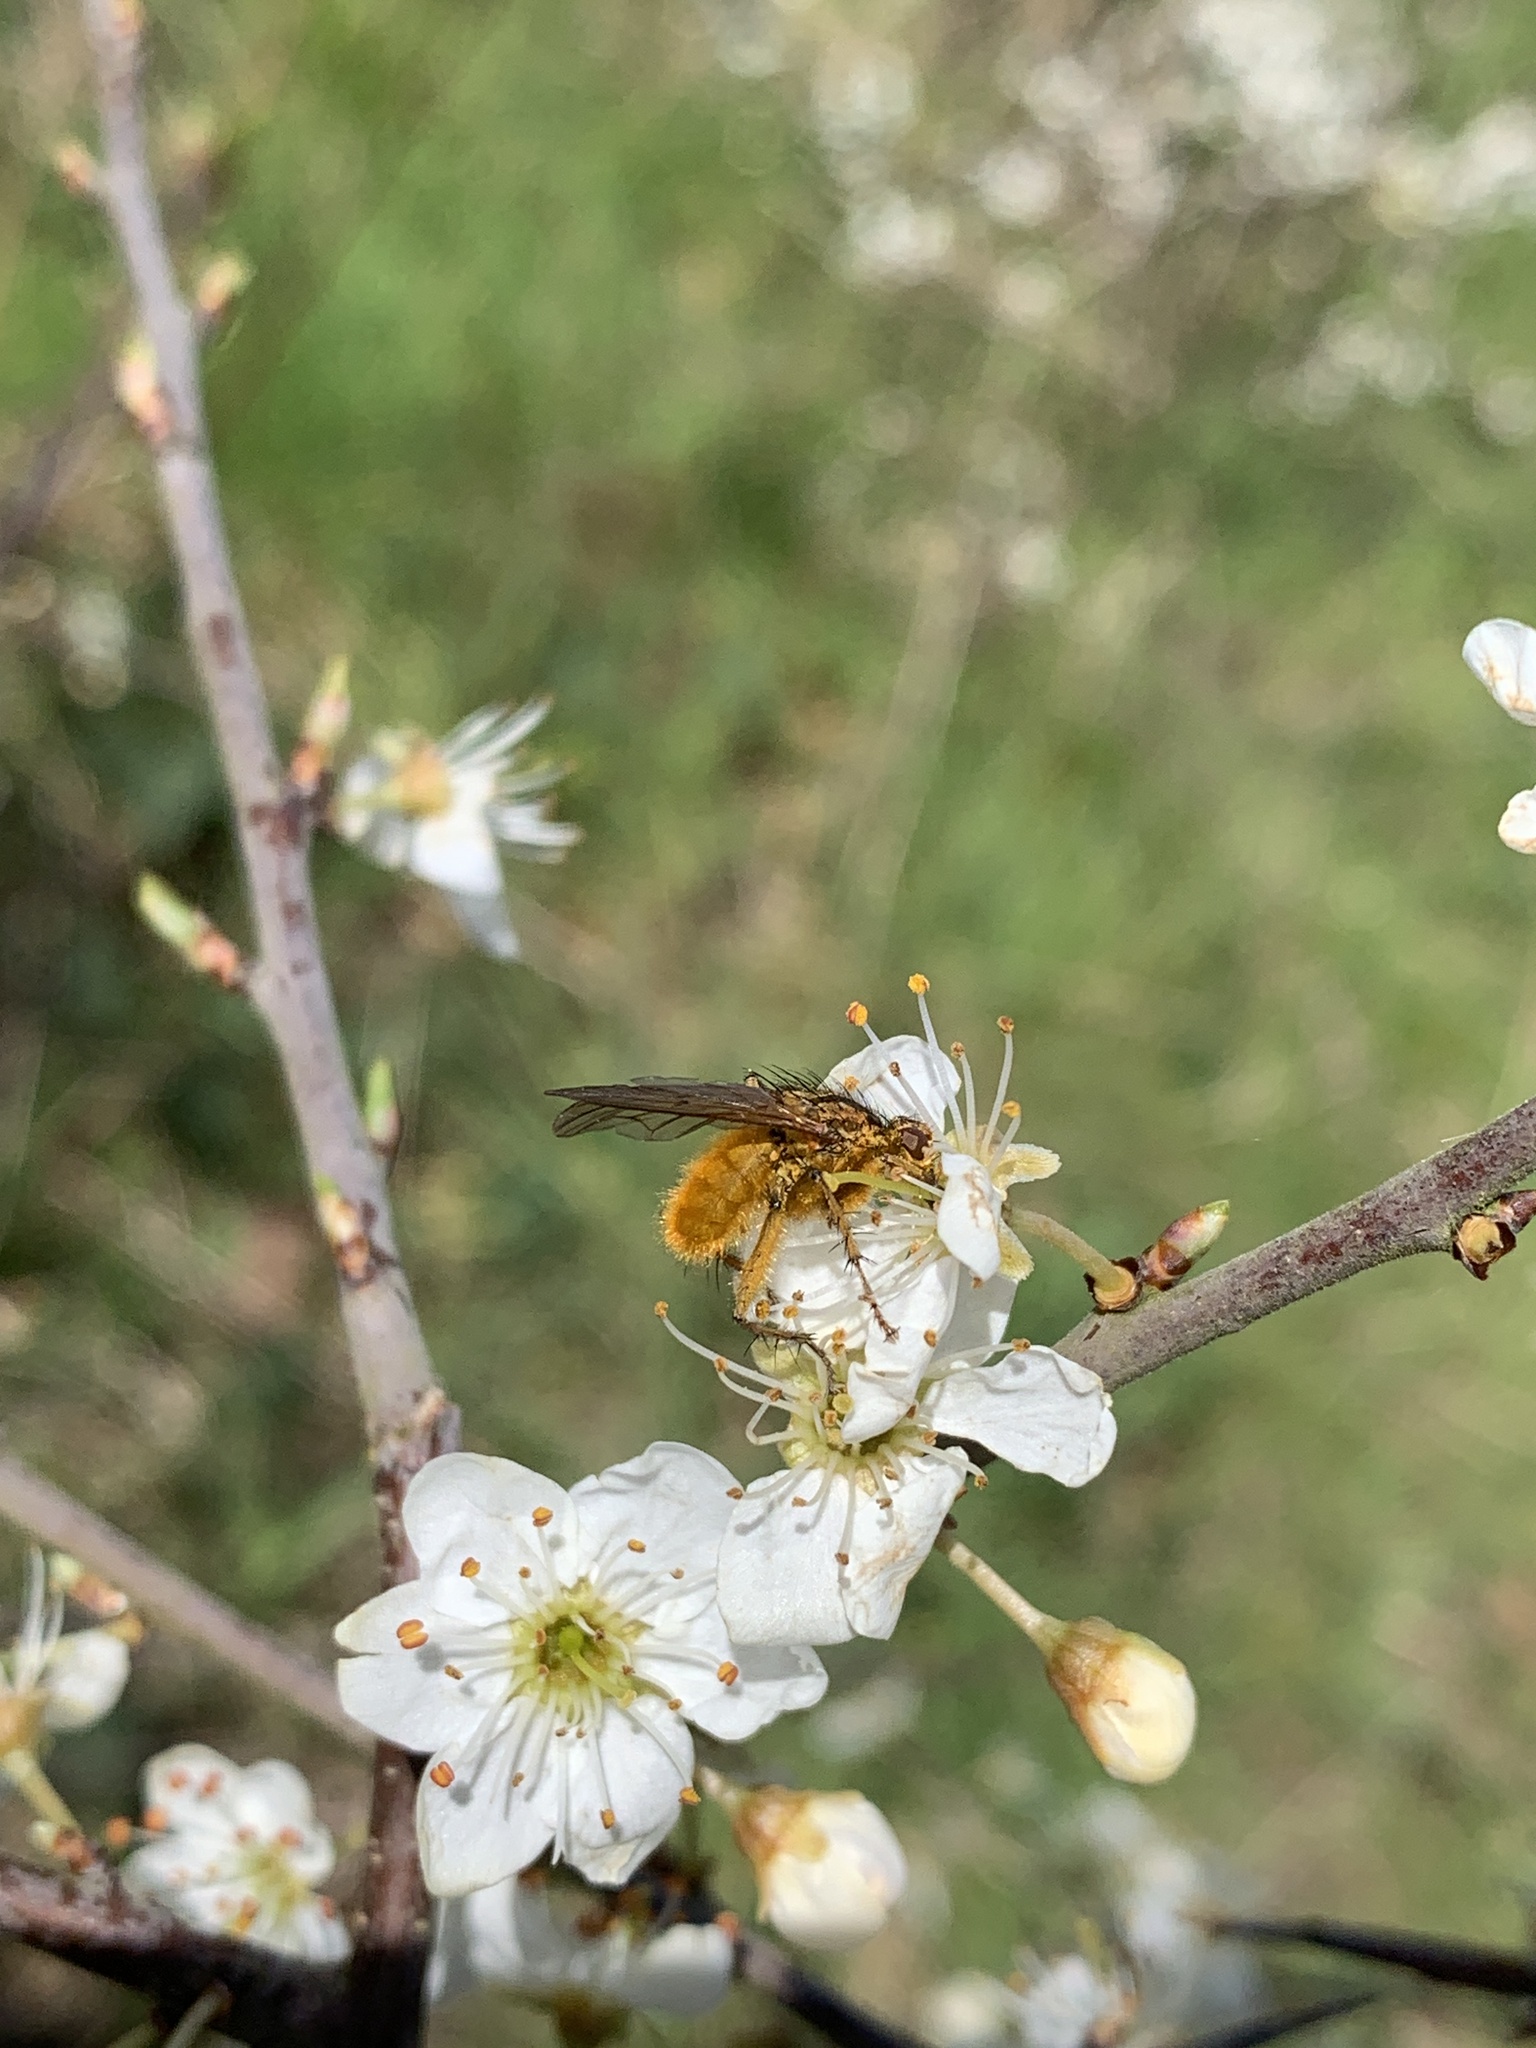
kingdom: Animalia
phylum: Arthropoda
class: Insecta
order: Diptera
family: Scathophagidae
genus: Scathophaga
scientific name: Scathophaga stercoraria
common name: Yellow dung fly
